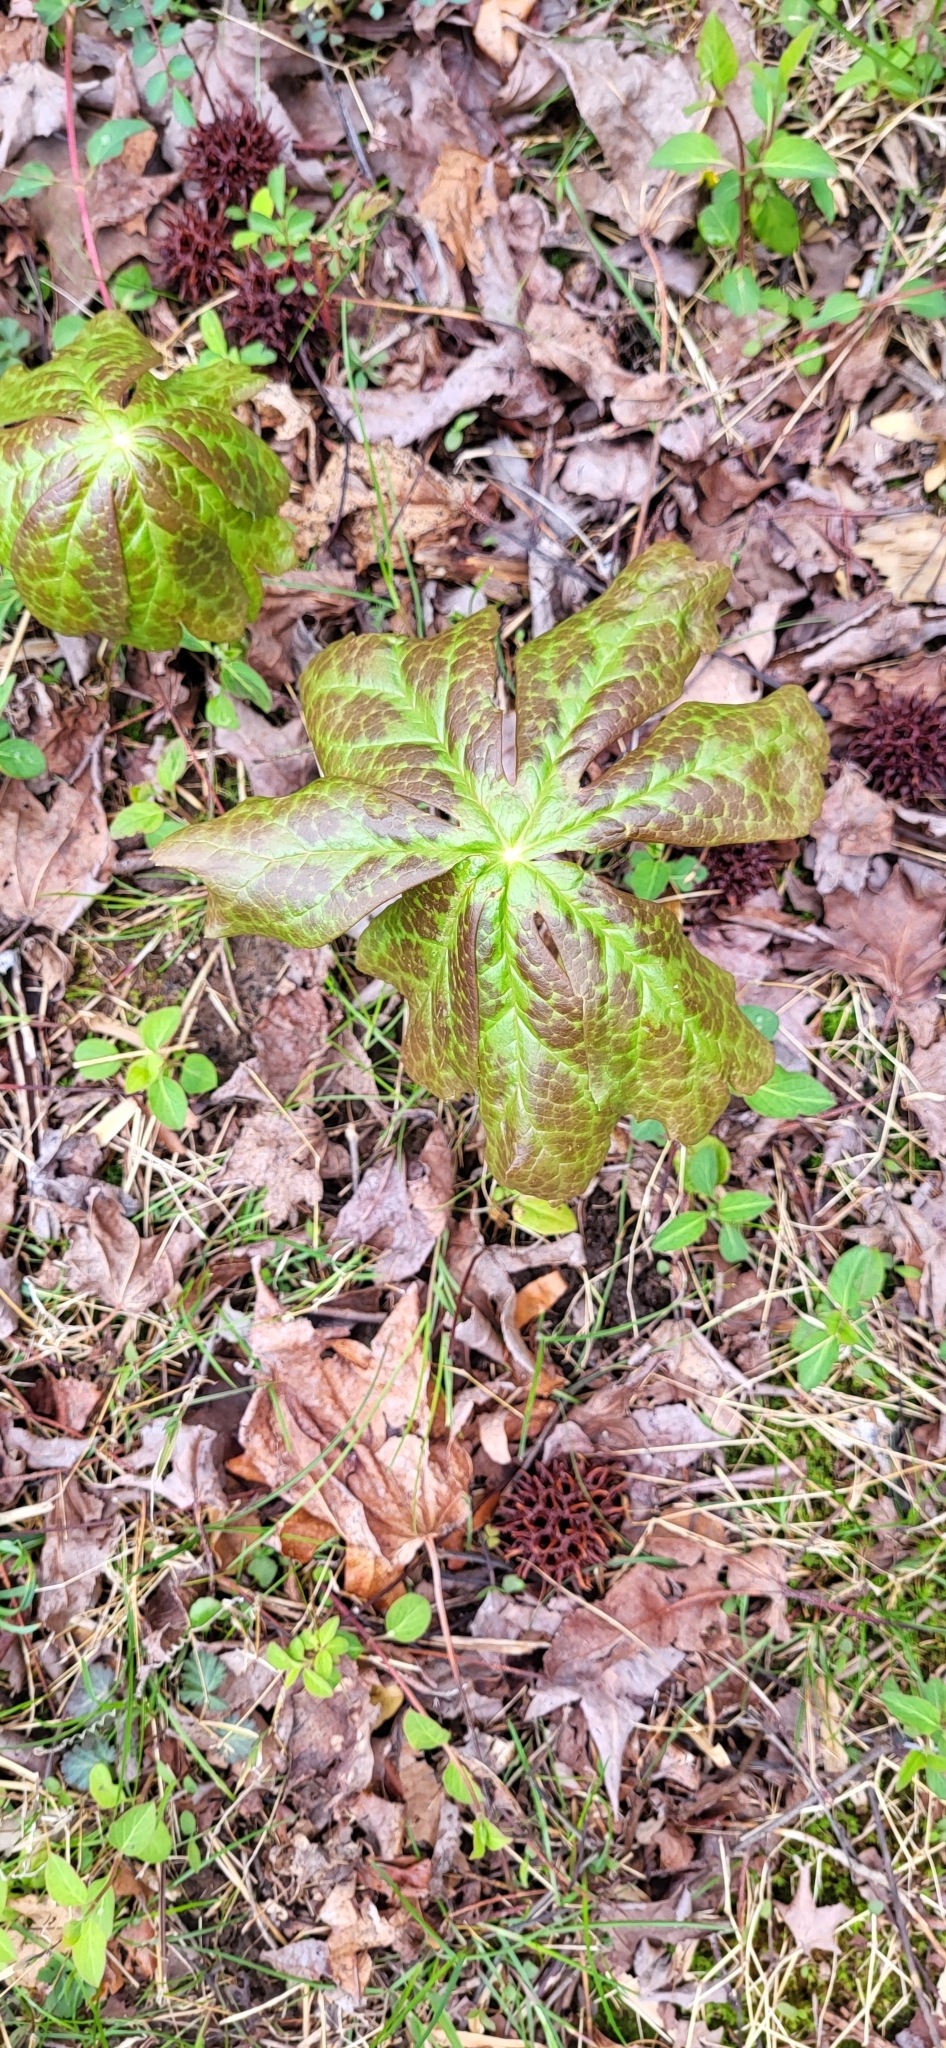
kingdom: Plantae
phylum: Tracheophyta
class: Magnoliopsida
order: Ranunculales
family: Berberidaceae
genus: Podophyllum
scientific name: Podophyllum peltatum
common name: Wild mandrake
